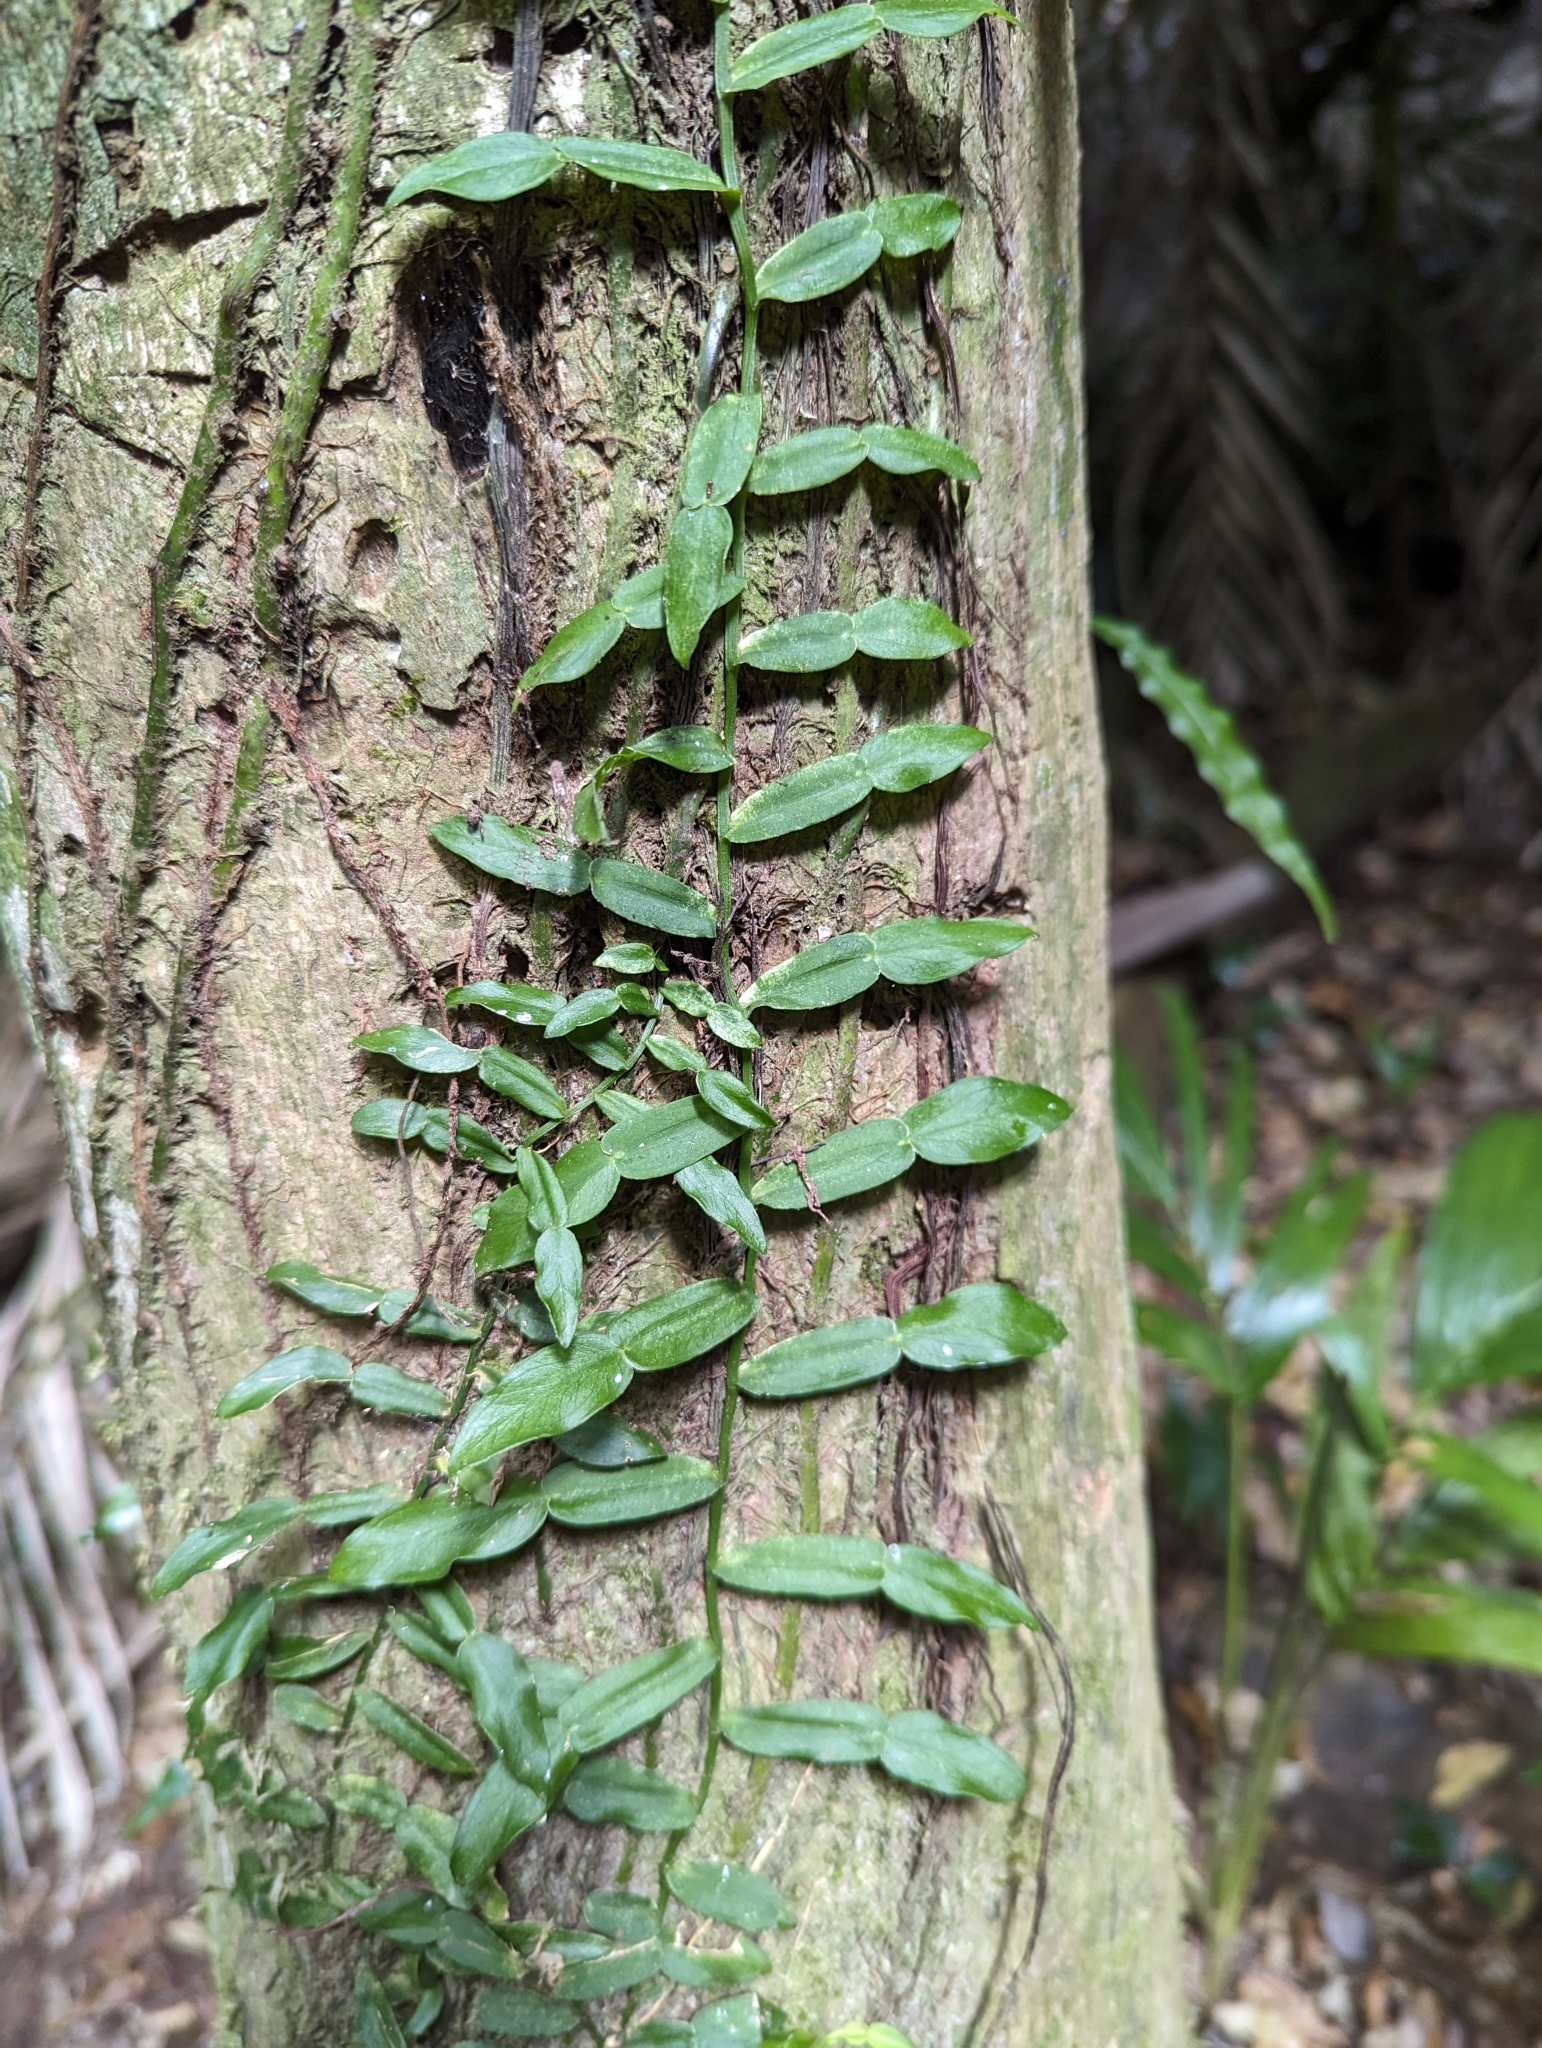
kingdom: Plantae
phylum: Tracheophyta
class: Liliopsida
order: Alismatales
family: Araceae
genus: Pothos
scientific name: Pothos longipes
